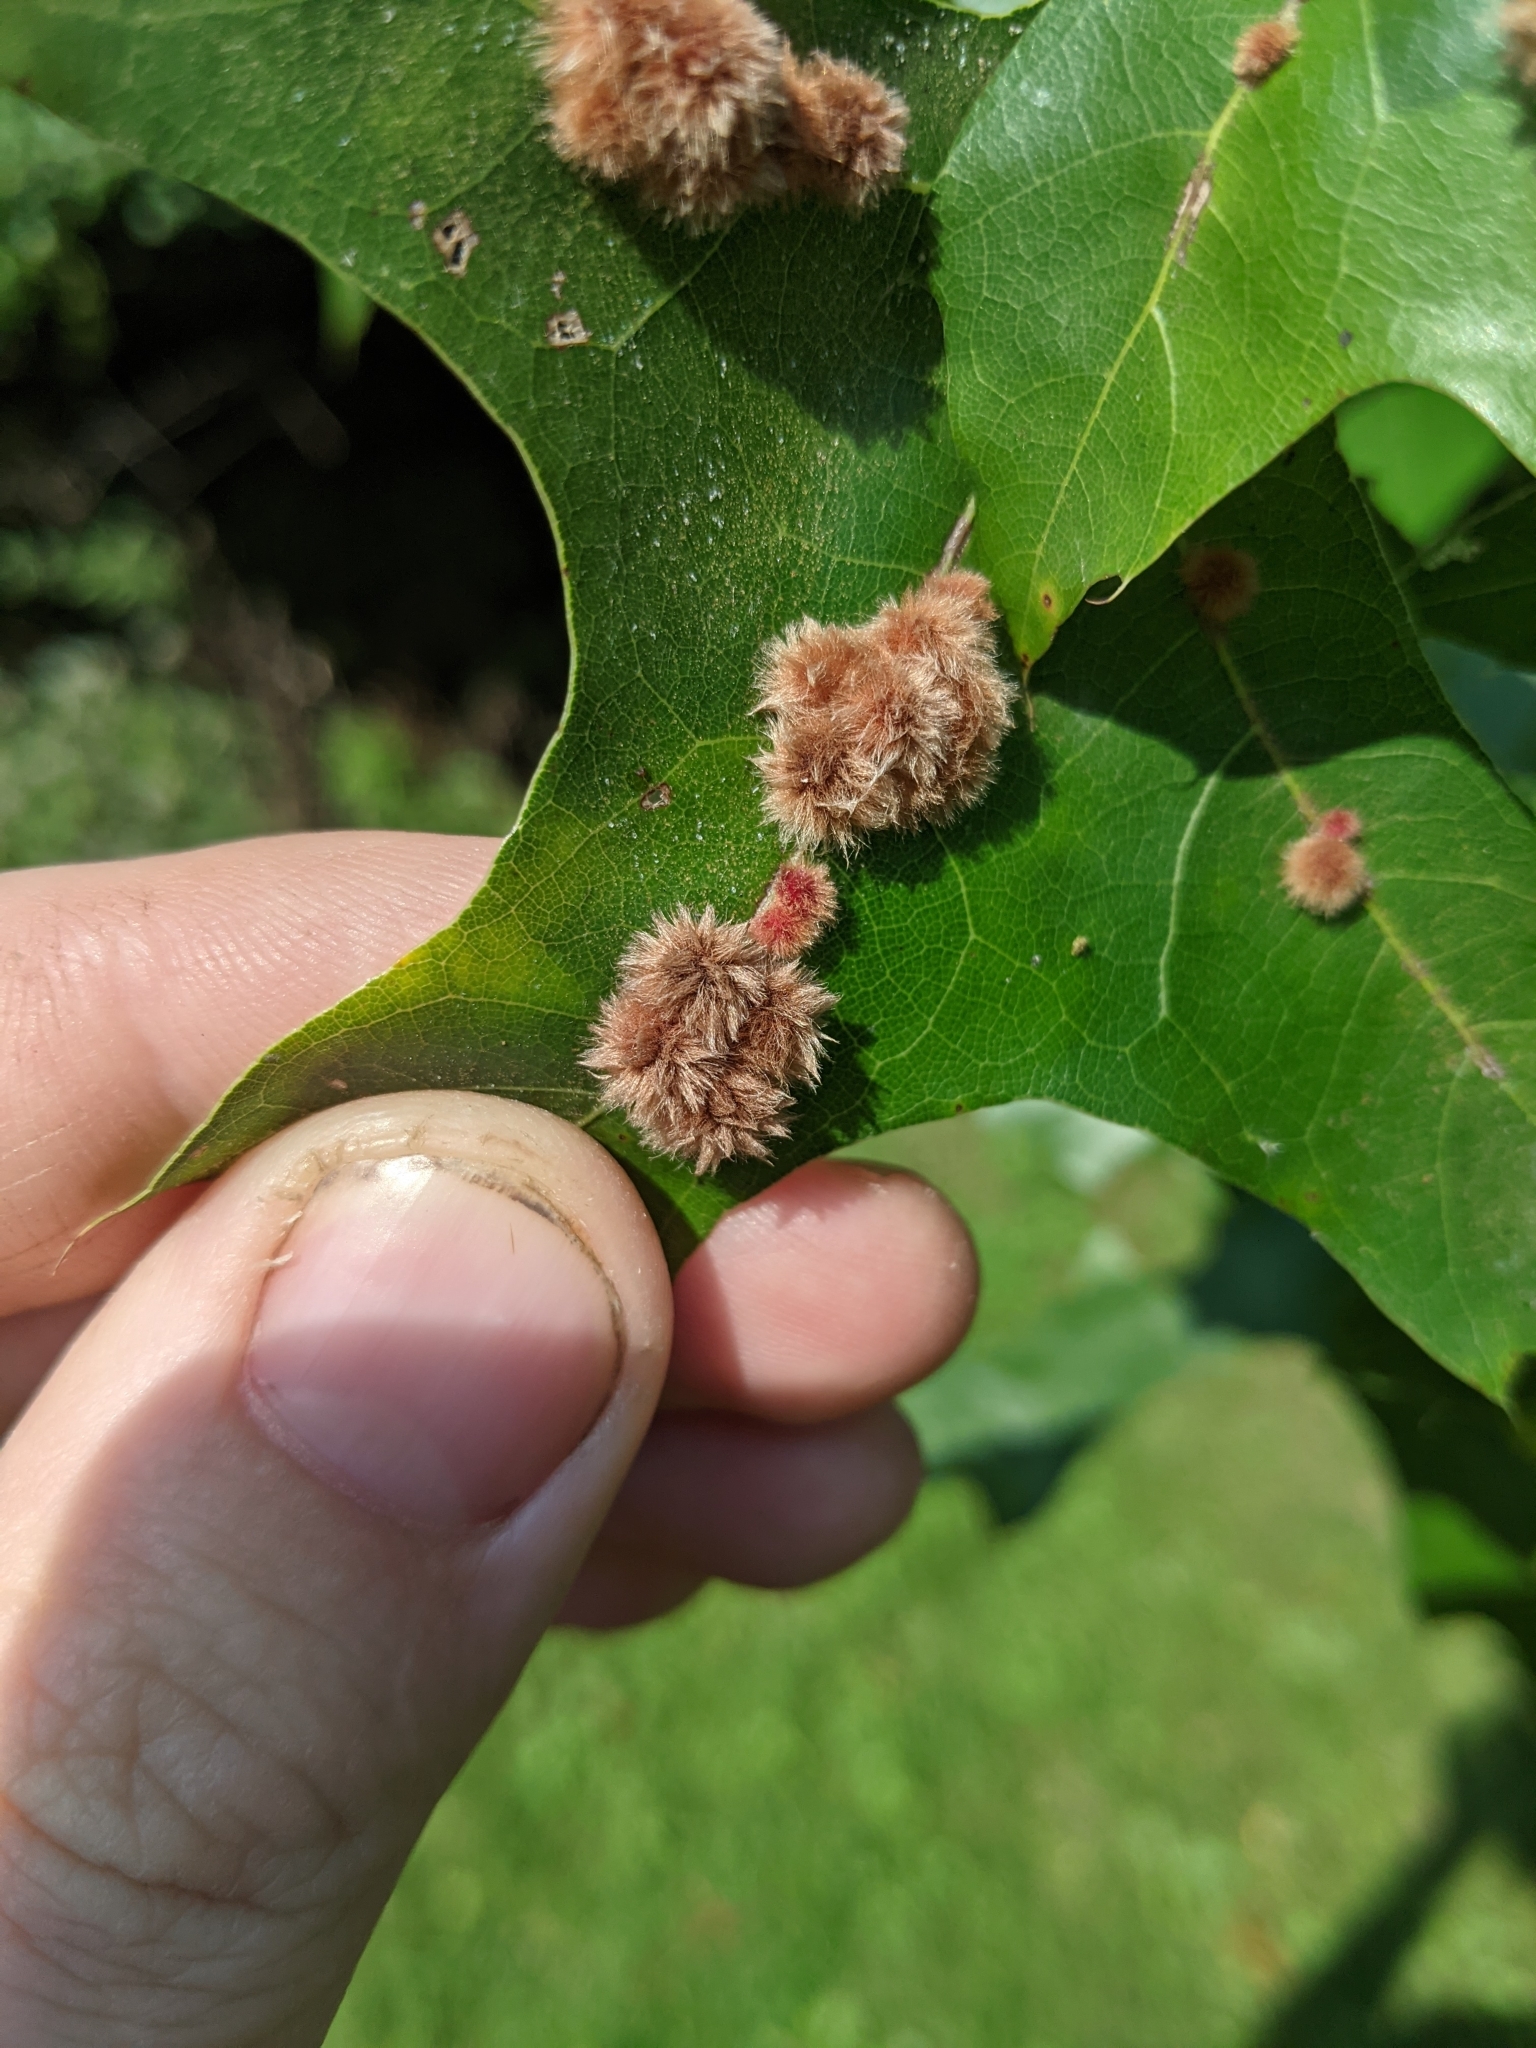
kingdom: Animalia
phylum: Arthropoda
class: Insecta
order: Hymenoptera
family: Cynipidae
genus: Callirhytis
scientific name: Callirhytis
